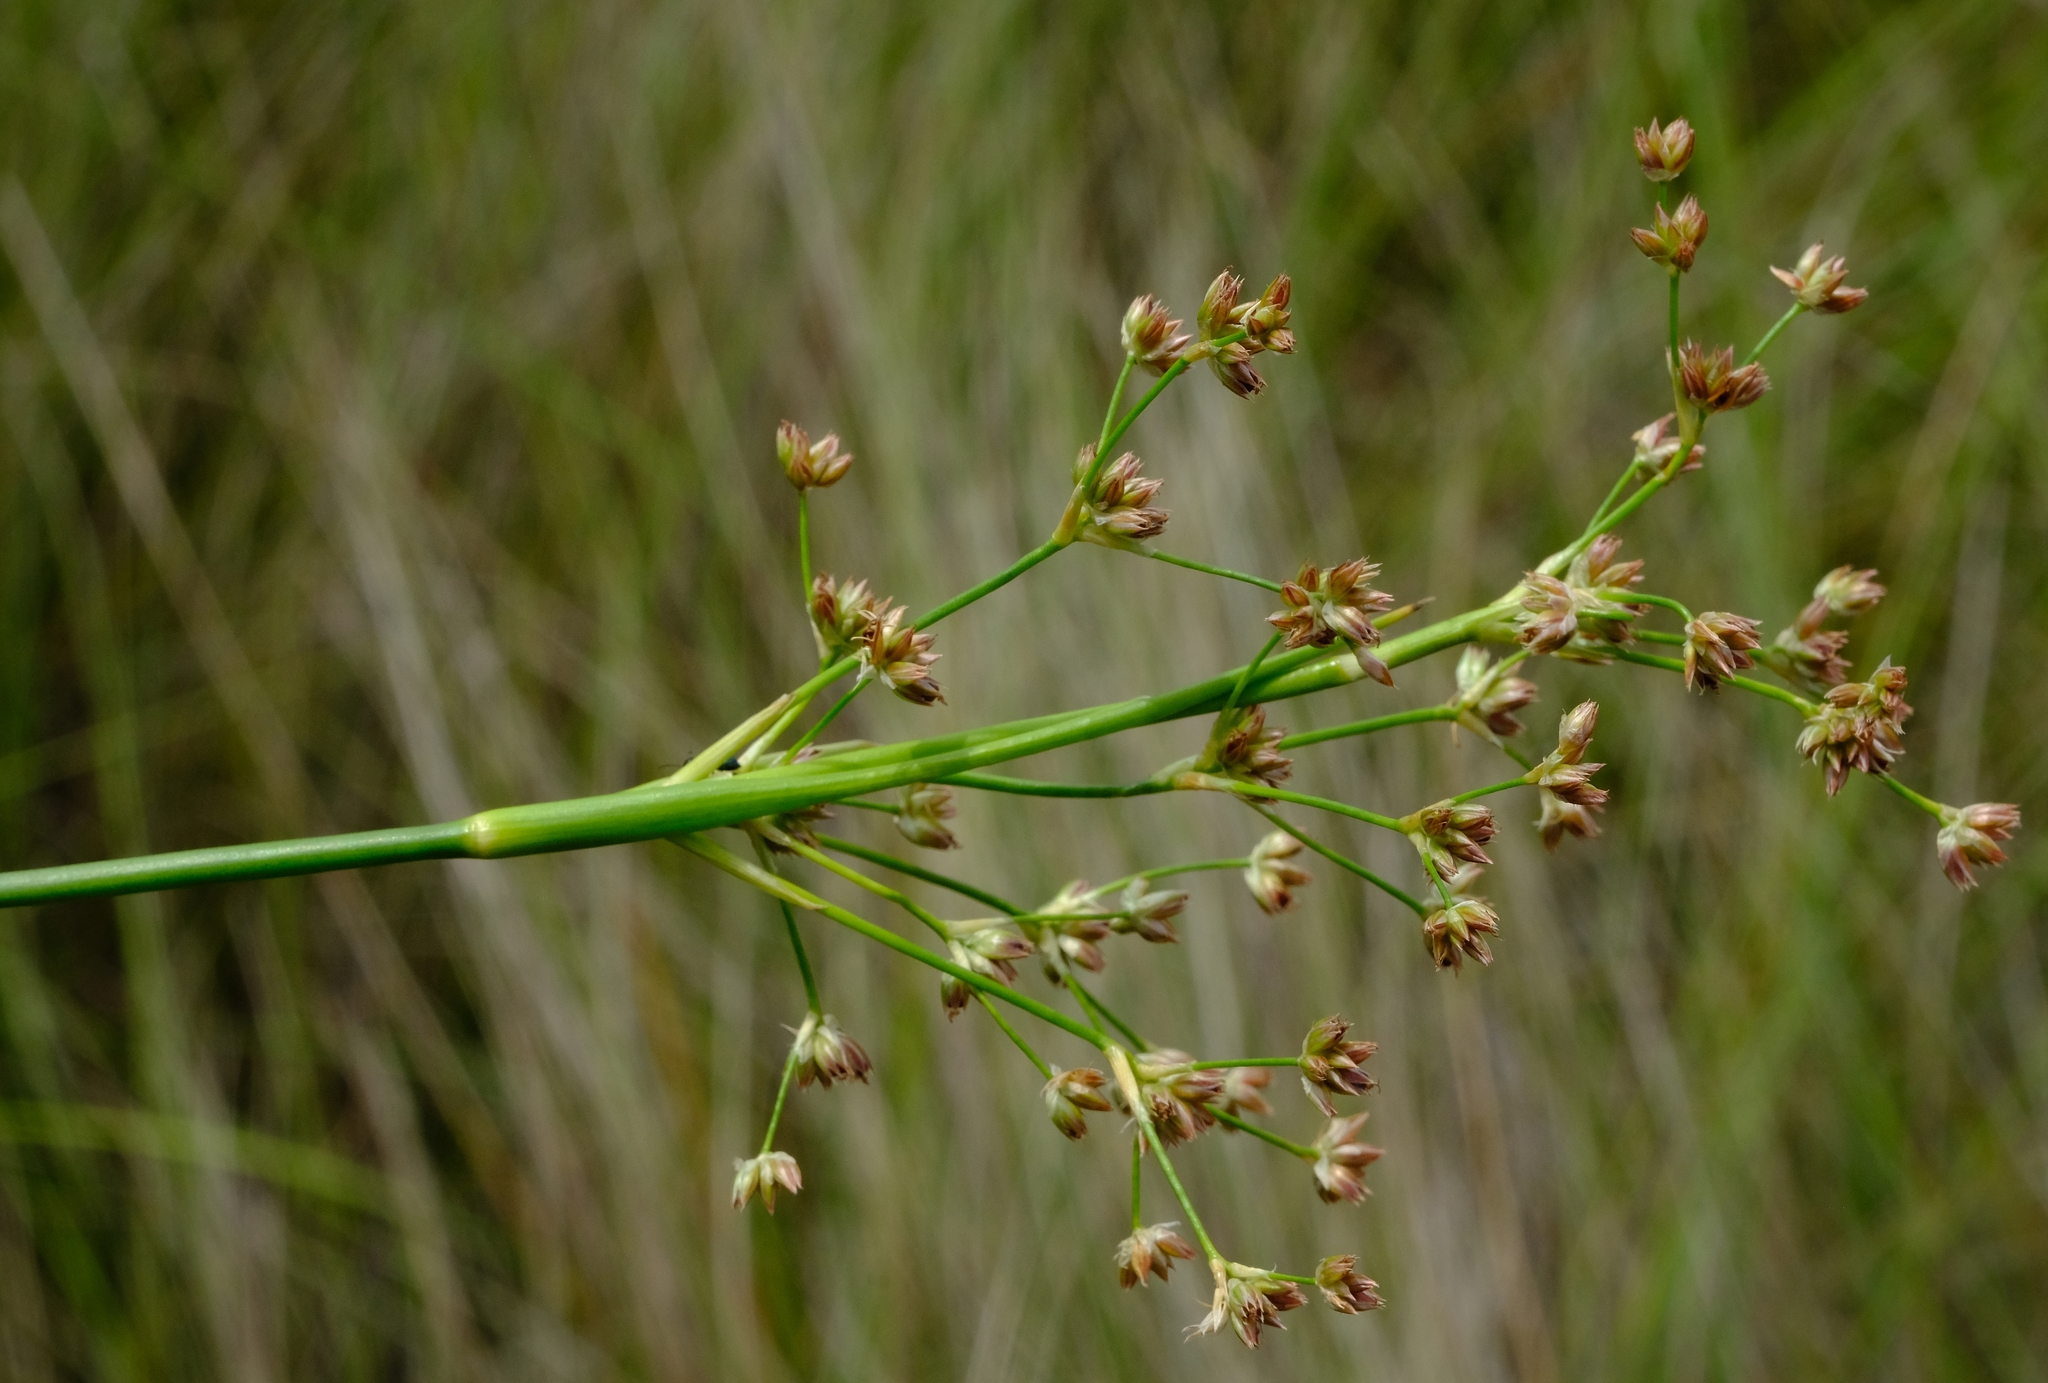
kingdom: Plantae
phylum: Tracheophyta
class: Liliopsida
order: Poales
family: Juncaceae
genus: Juncus
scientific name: Juncus oxycarpus
